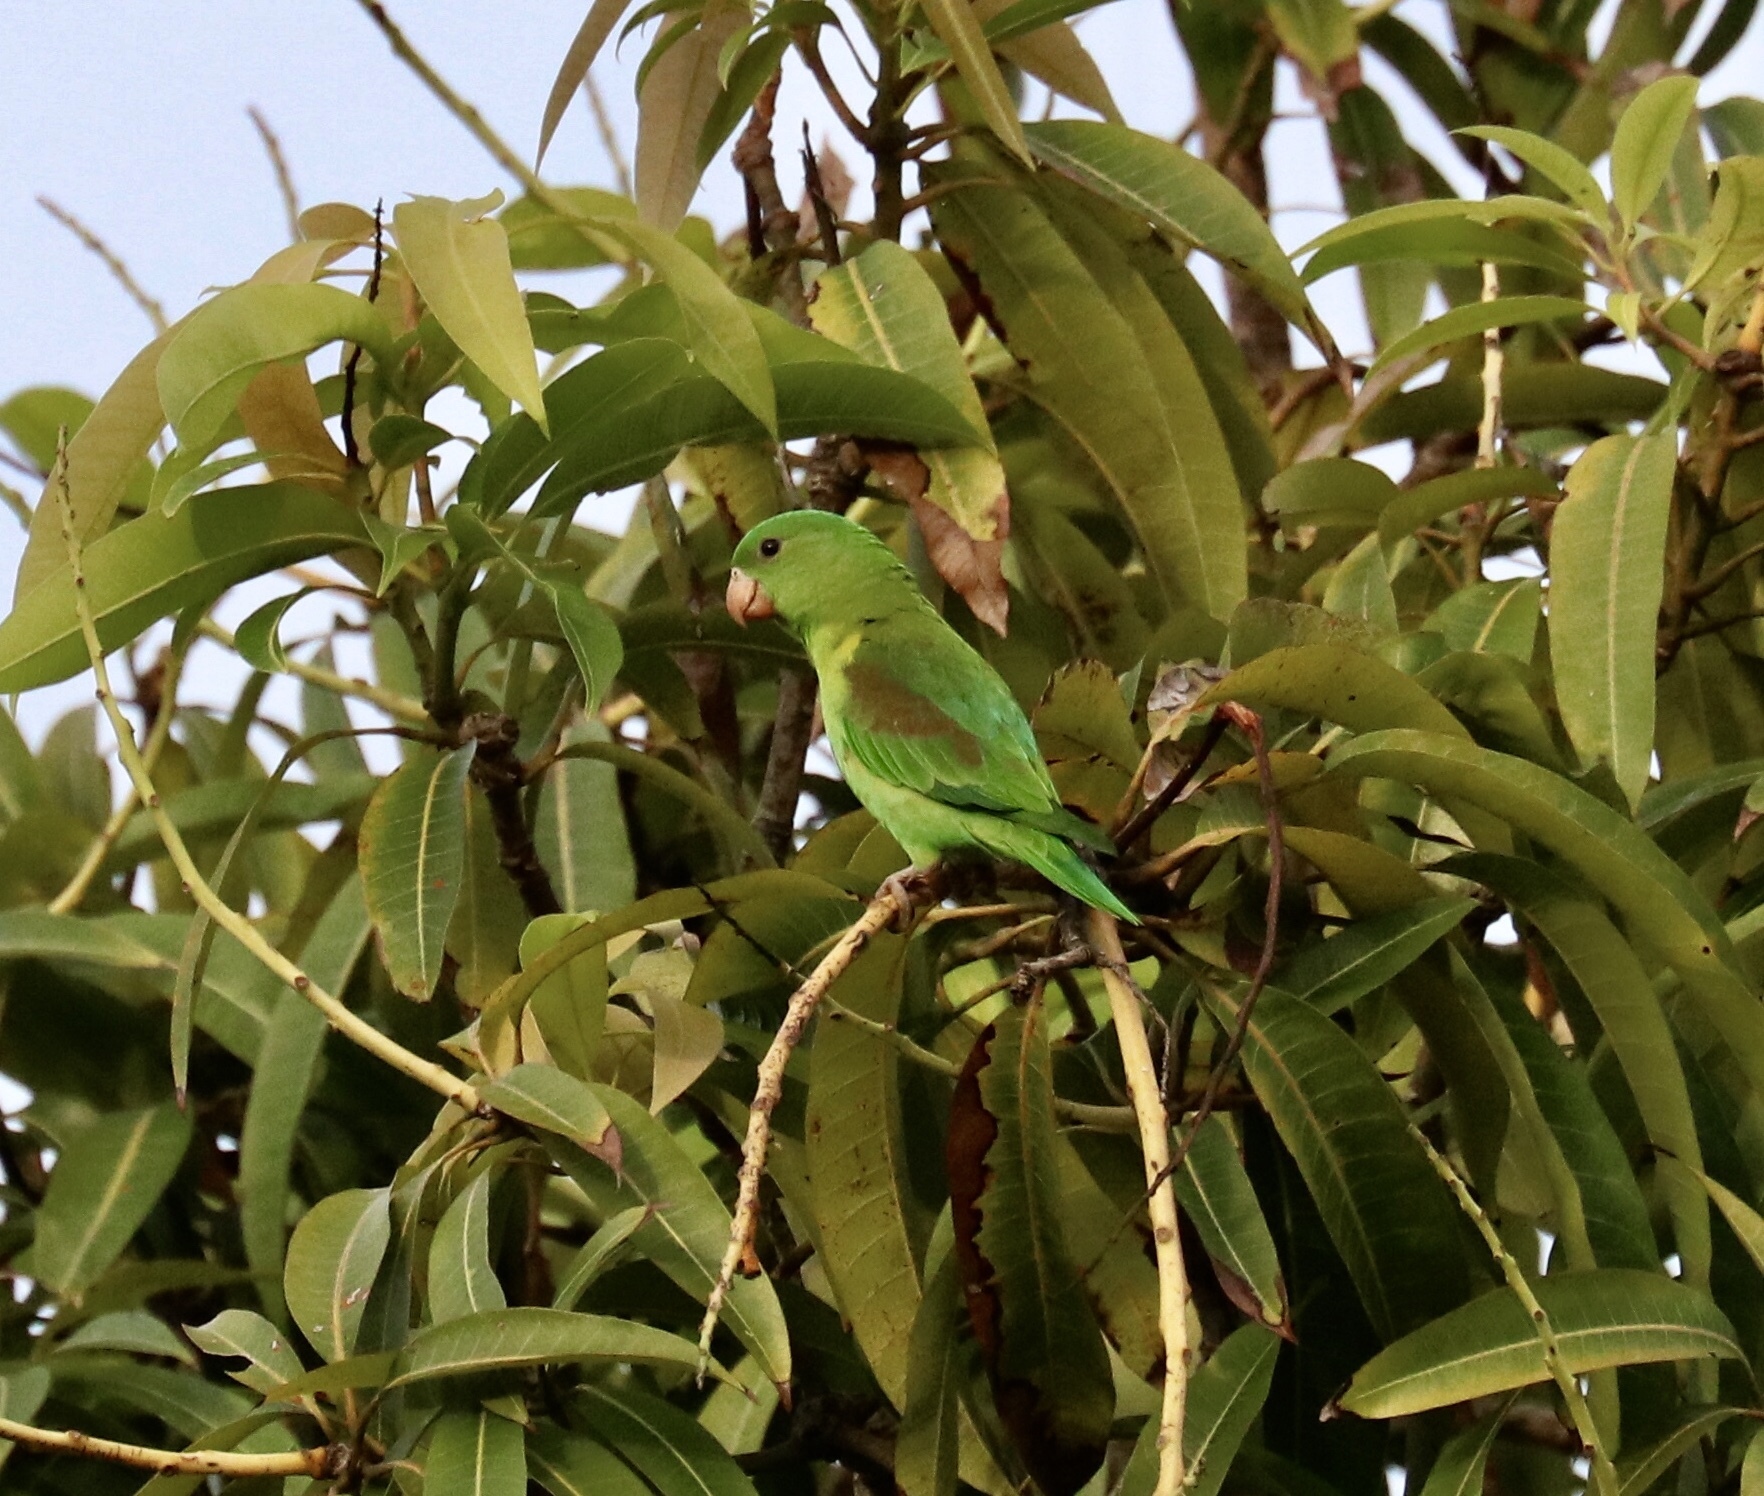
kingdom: Animalia
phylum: Chordata
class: Aves
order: Psittaciformes
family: Psittacidae
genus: Brotogeris
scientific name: Brotogeris jugularis
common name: Orange-chinned parakeet
